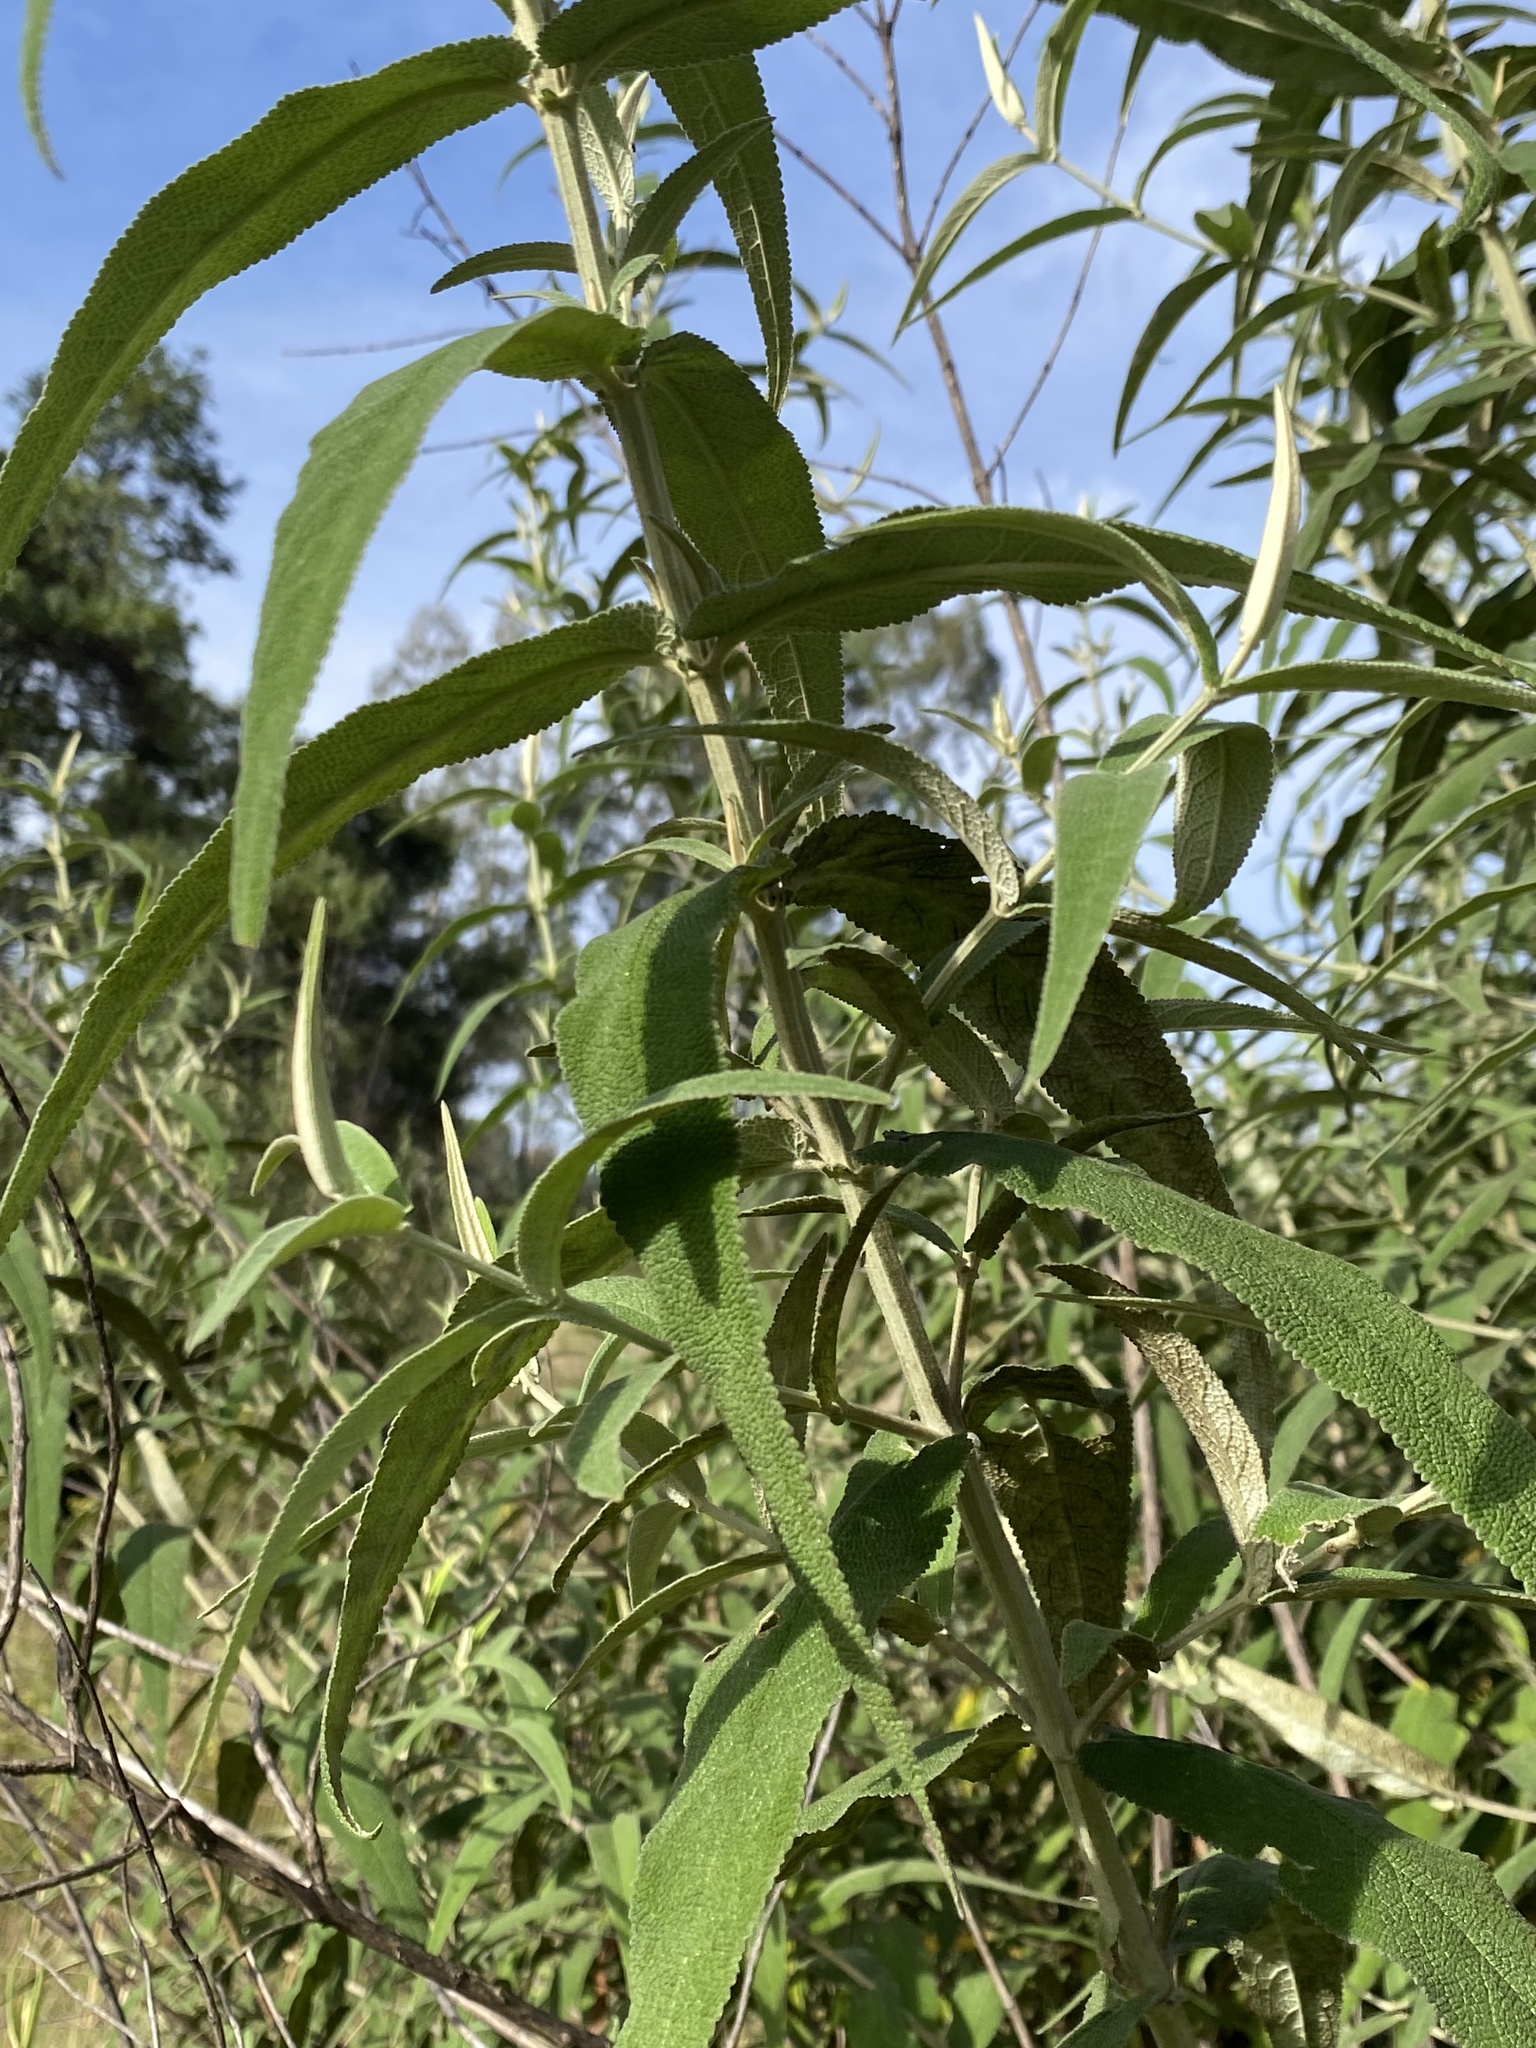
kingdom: Plantae
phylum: Tracheophyta
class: Magnoliopsida
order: Lamiales
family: Scrophulariaceae
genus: Buddleja
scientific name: Buddleja salviifolia
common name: Sagewood
